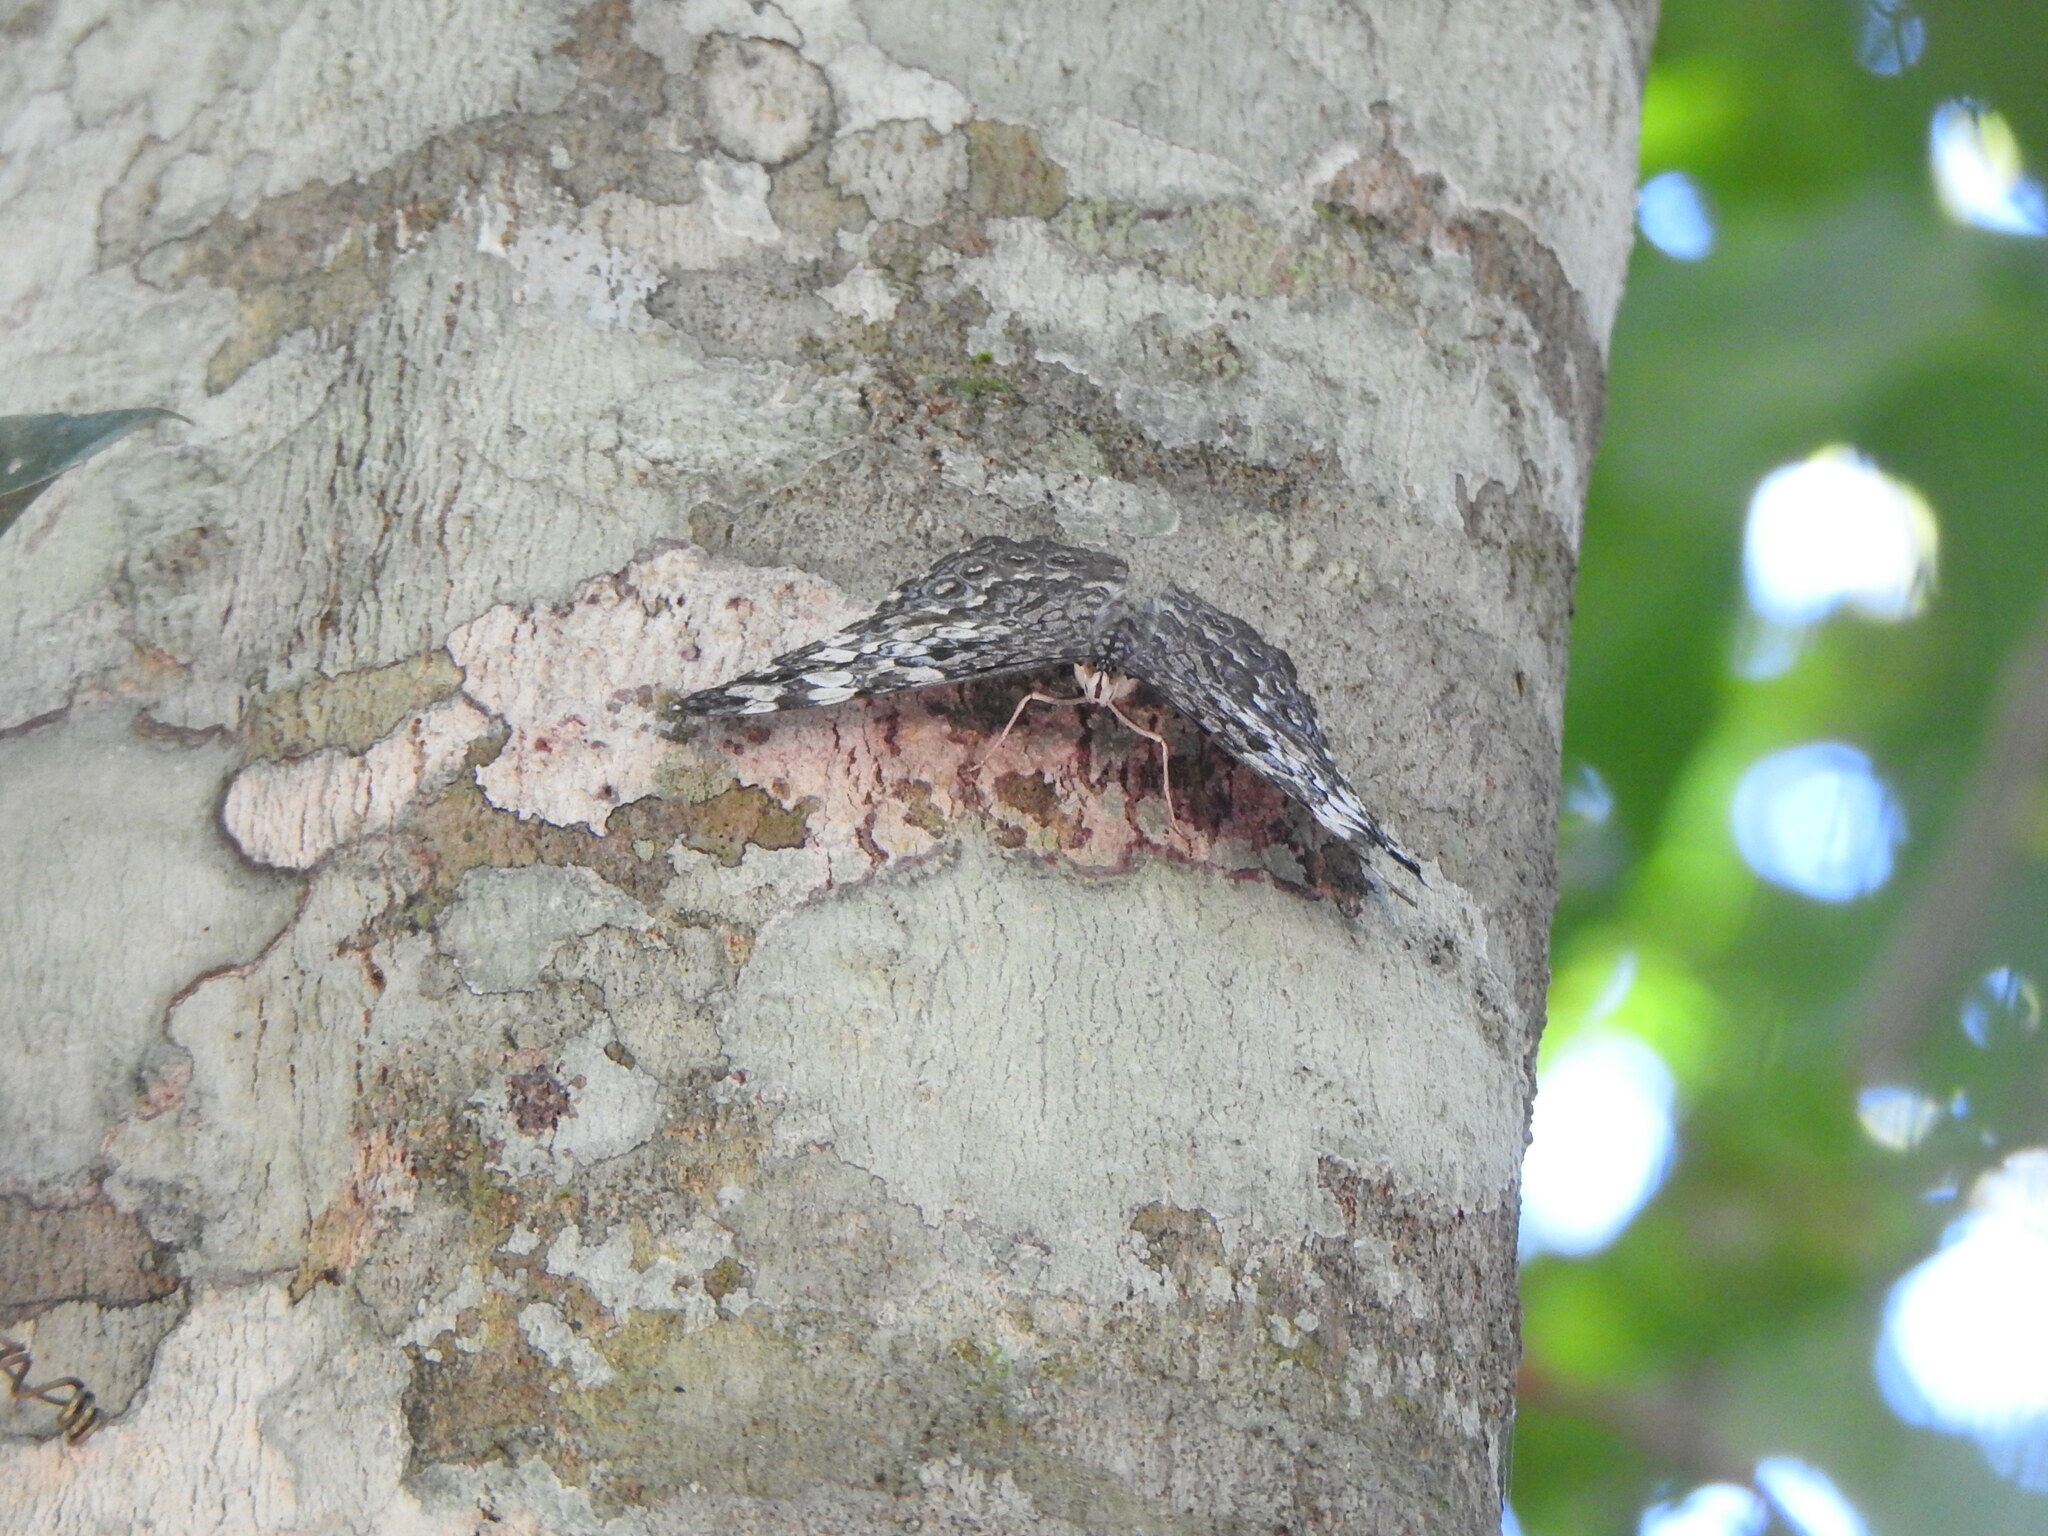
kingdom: Animalia
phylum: Arthropoda
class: Insecta
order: Lepidoptera
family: Nymphalidae
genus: Hamadryas
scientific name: Hamadryas epinome
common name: Epinome cracker
